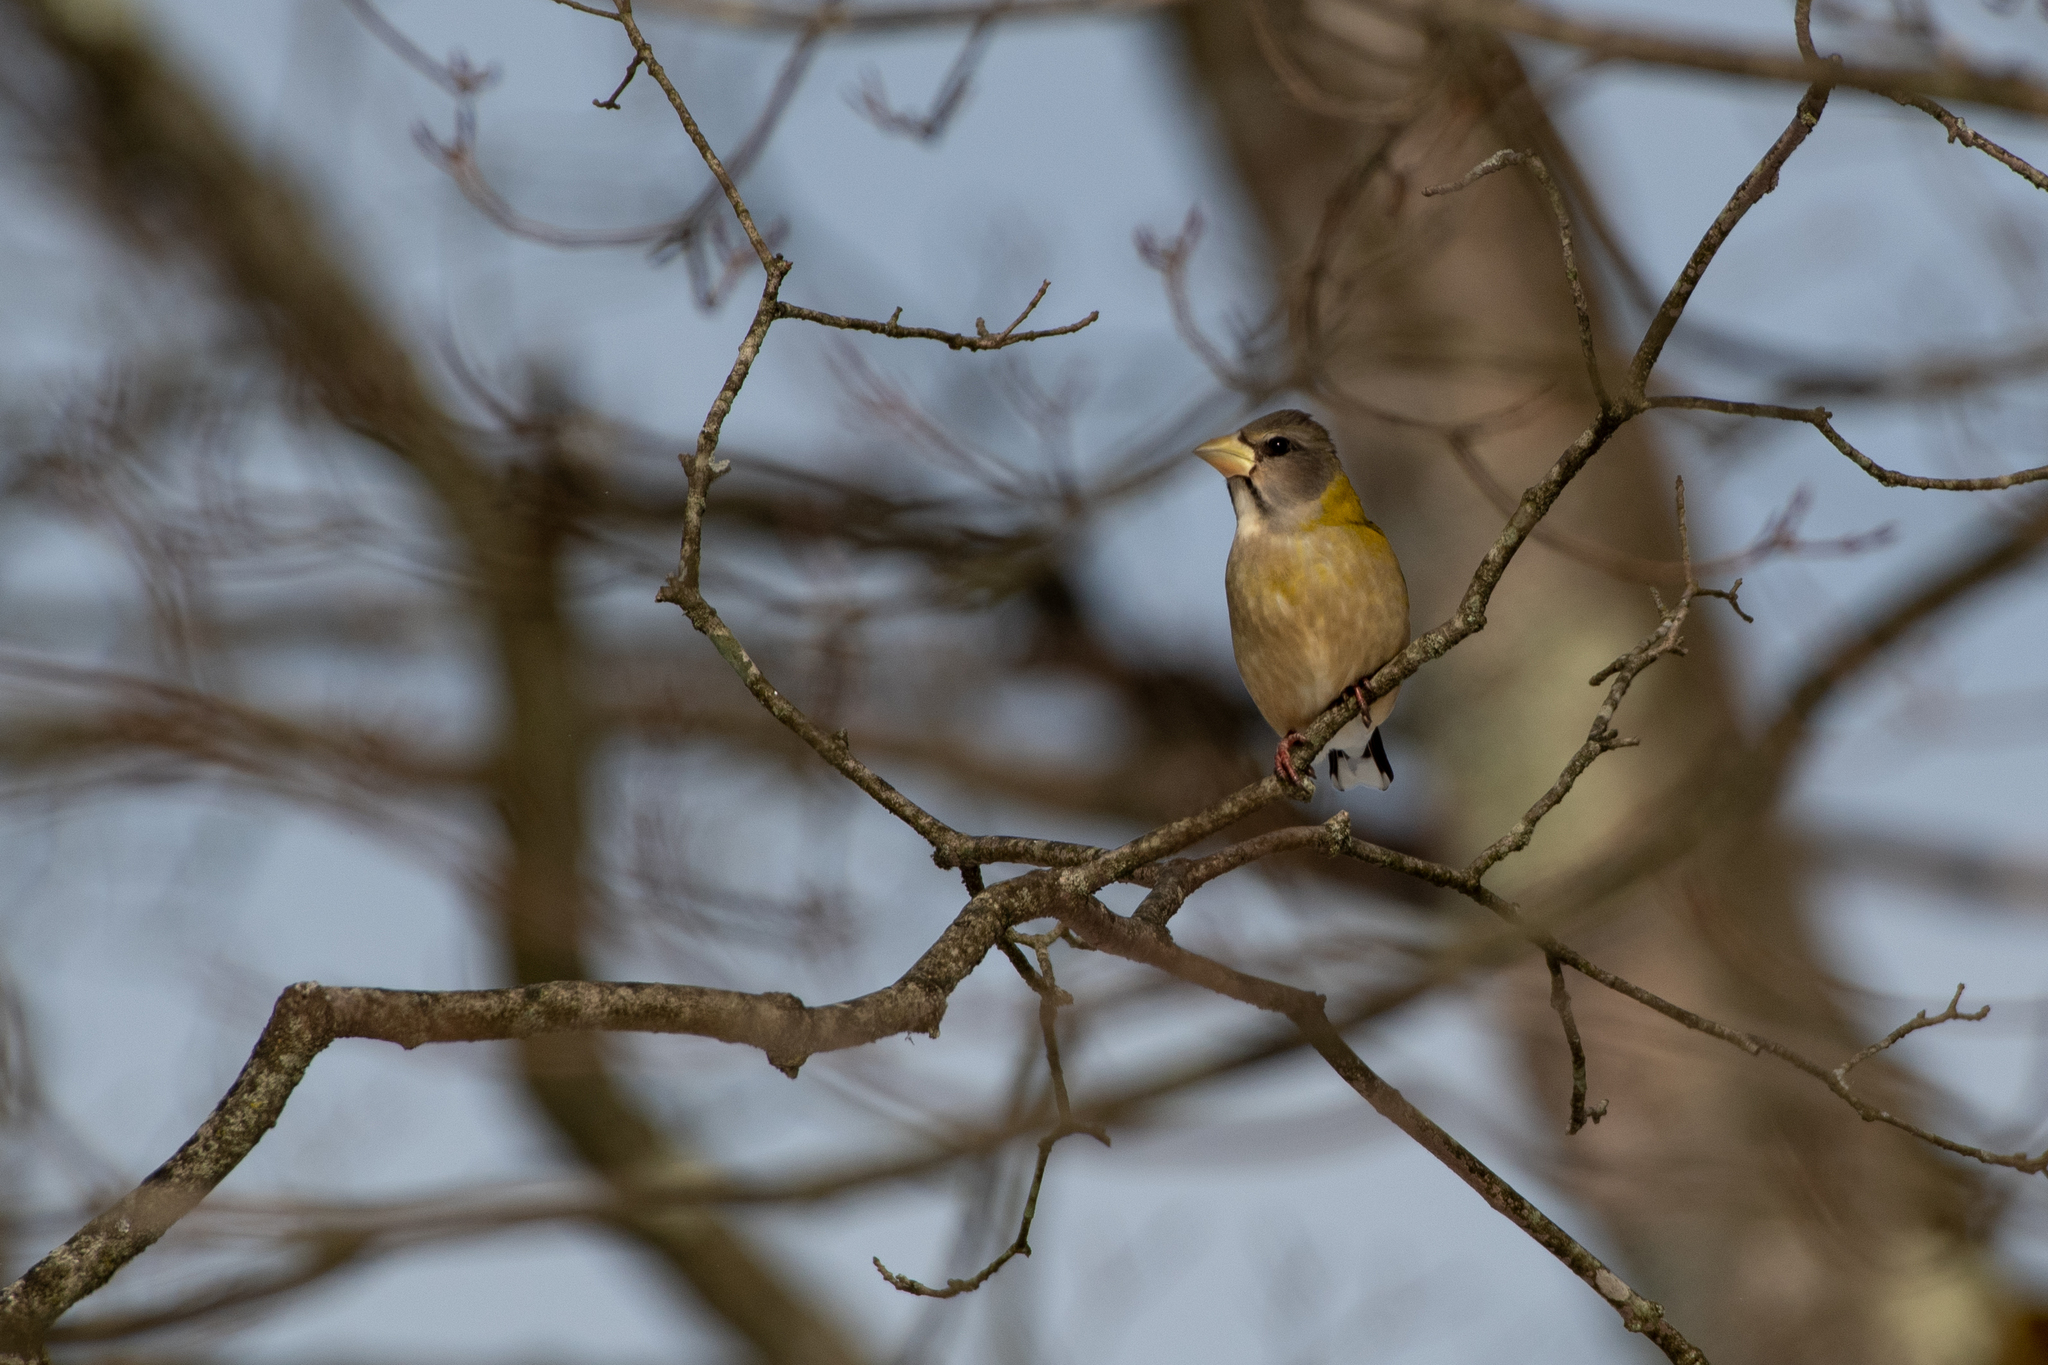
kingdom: Animalia
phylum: Chordata
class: Aves
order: Passeriformes
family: Fringillidae
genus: Hesperiphona
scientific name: Hesperiphona vespertina
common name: Evening grosbeak
